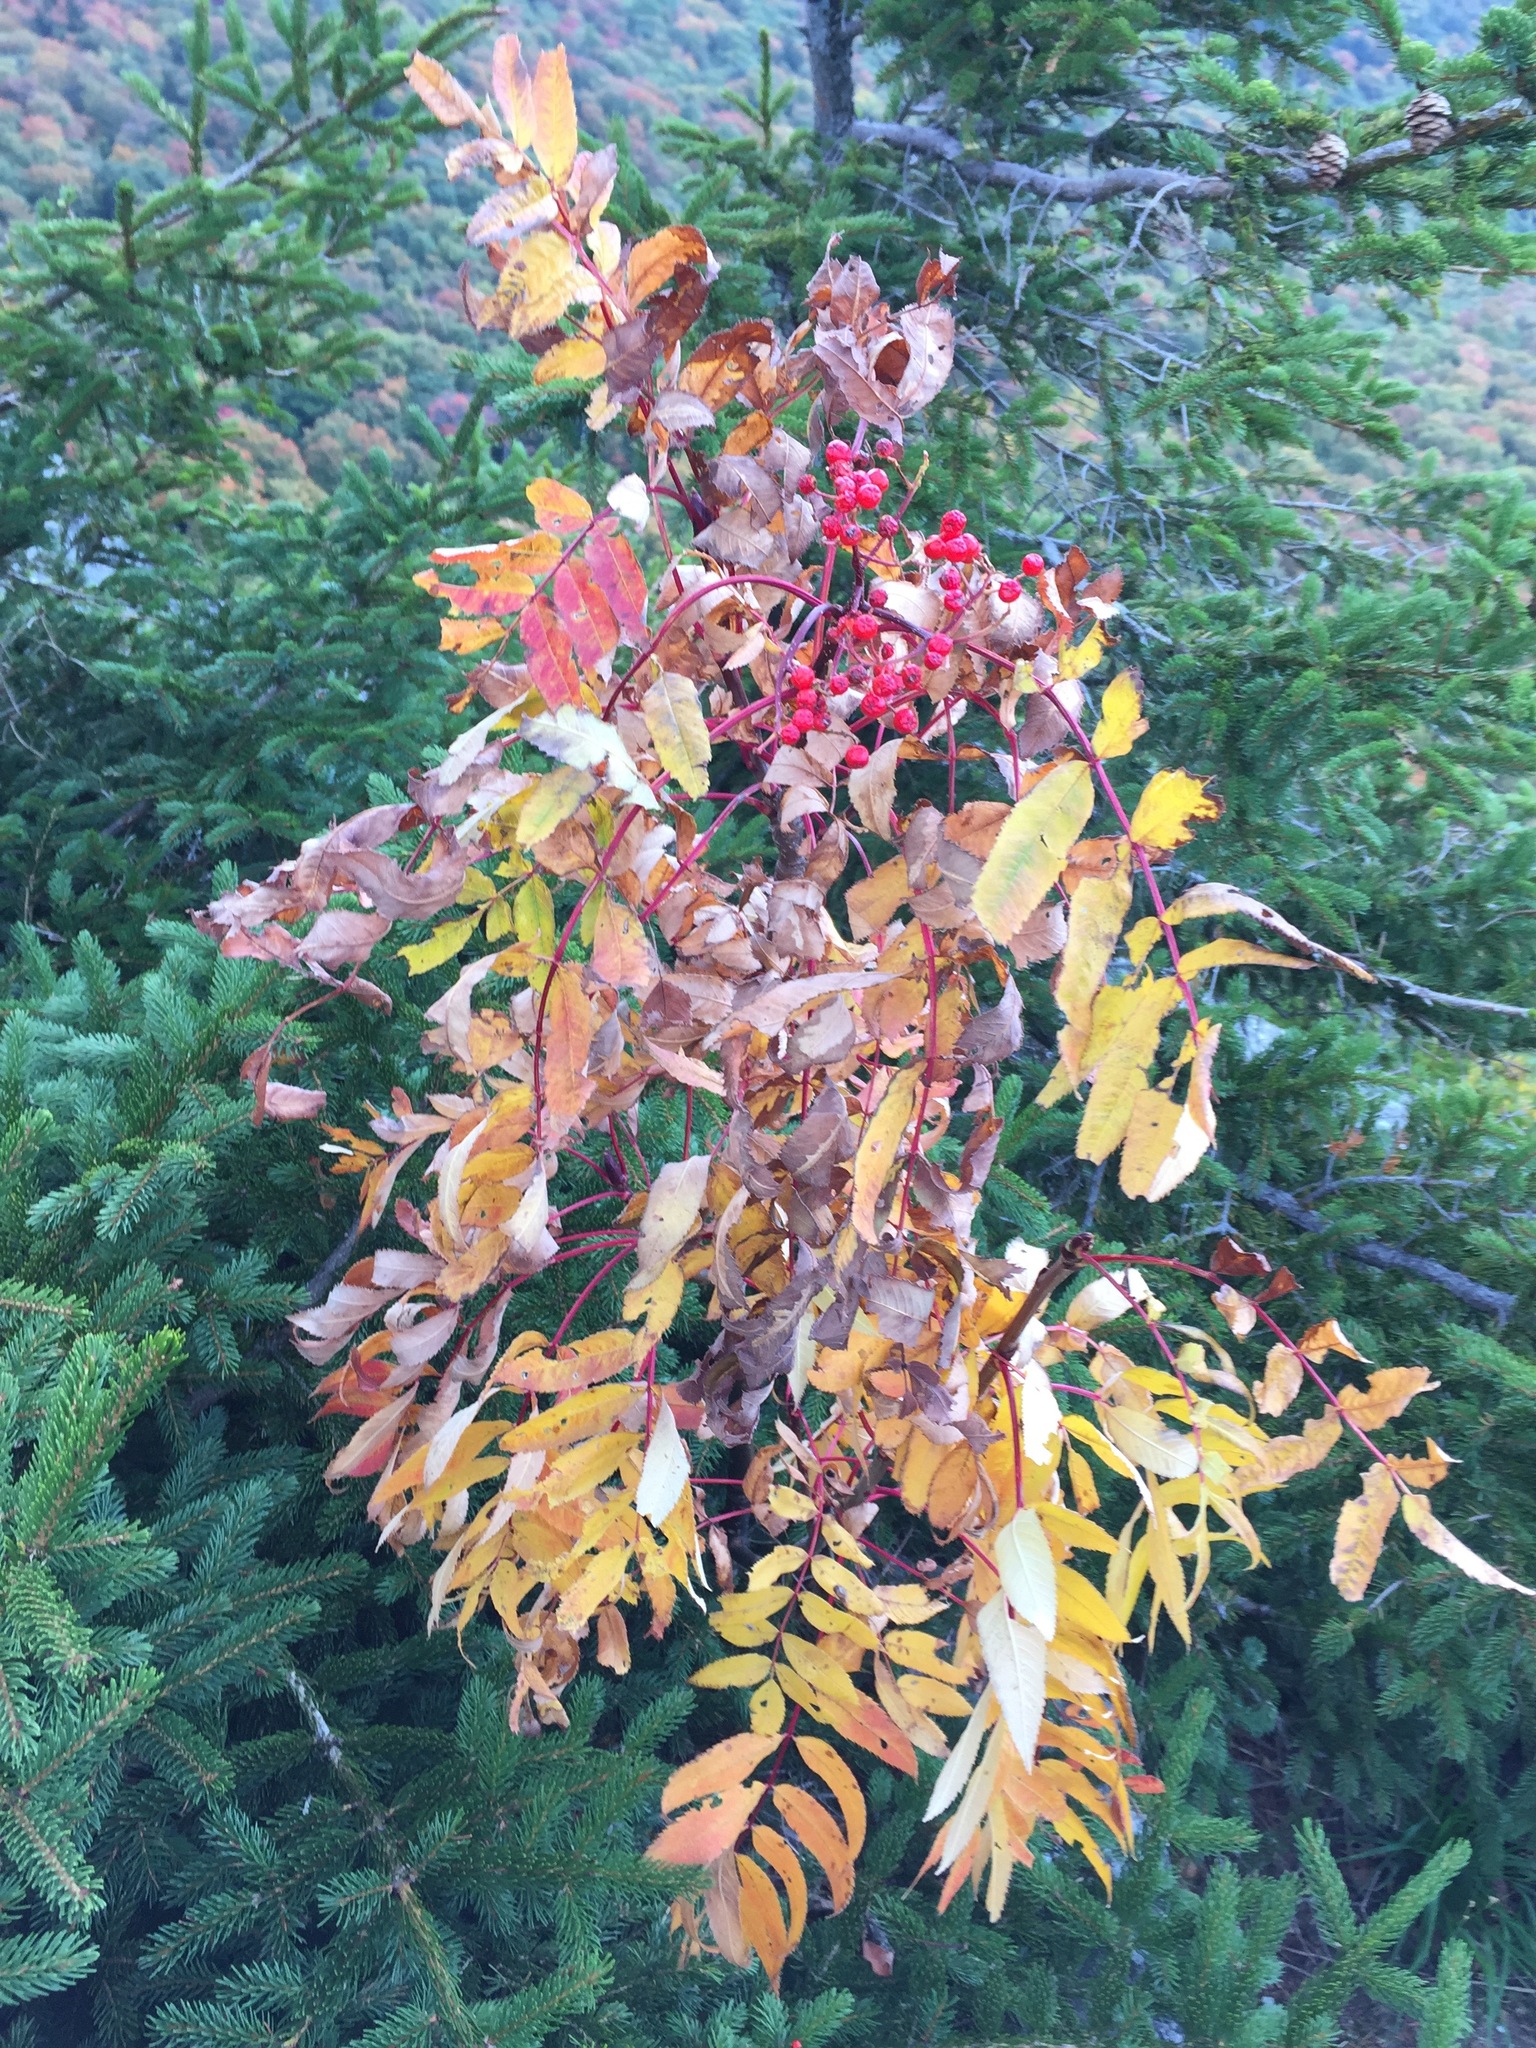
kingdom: Plantae
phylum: Tracheophyta
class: Magnoliopsida
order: Rosales
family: Rosaceae
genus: Sorbus
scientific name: Sorbus americana
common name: American mountain-ash
